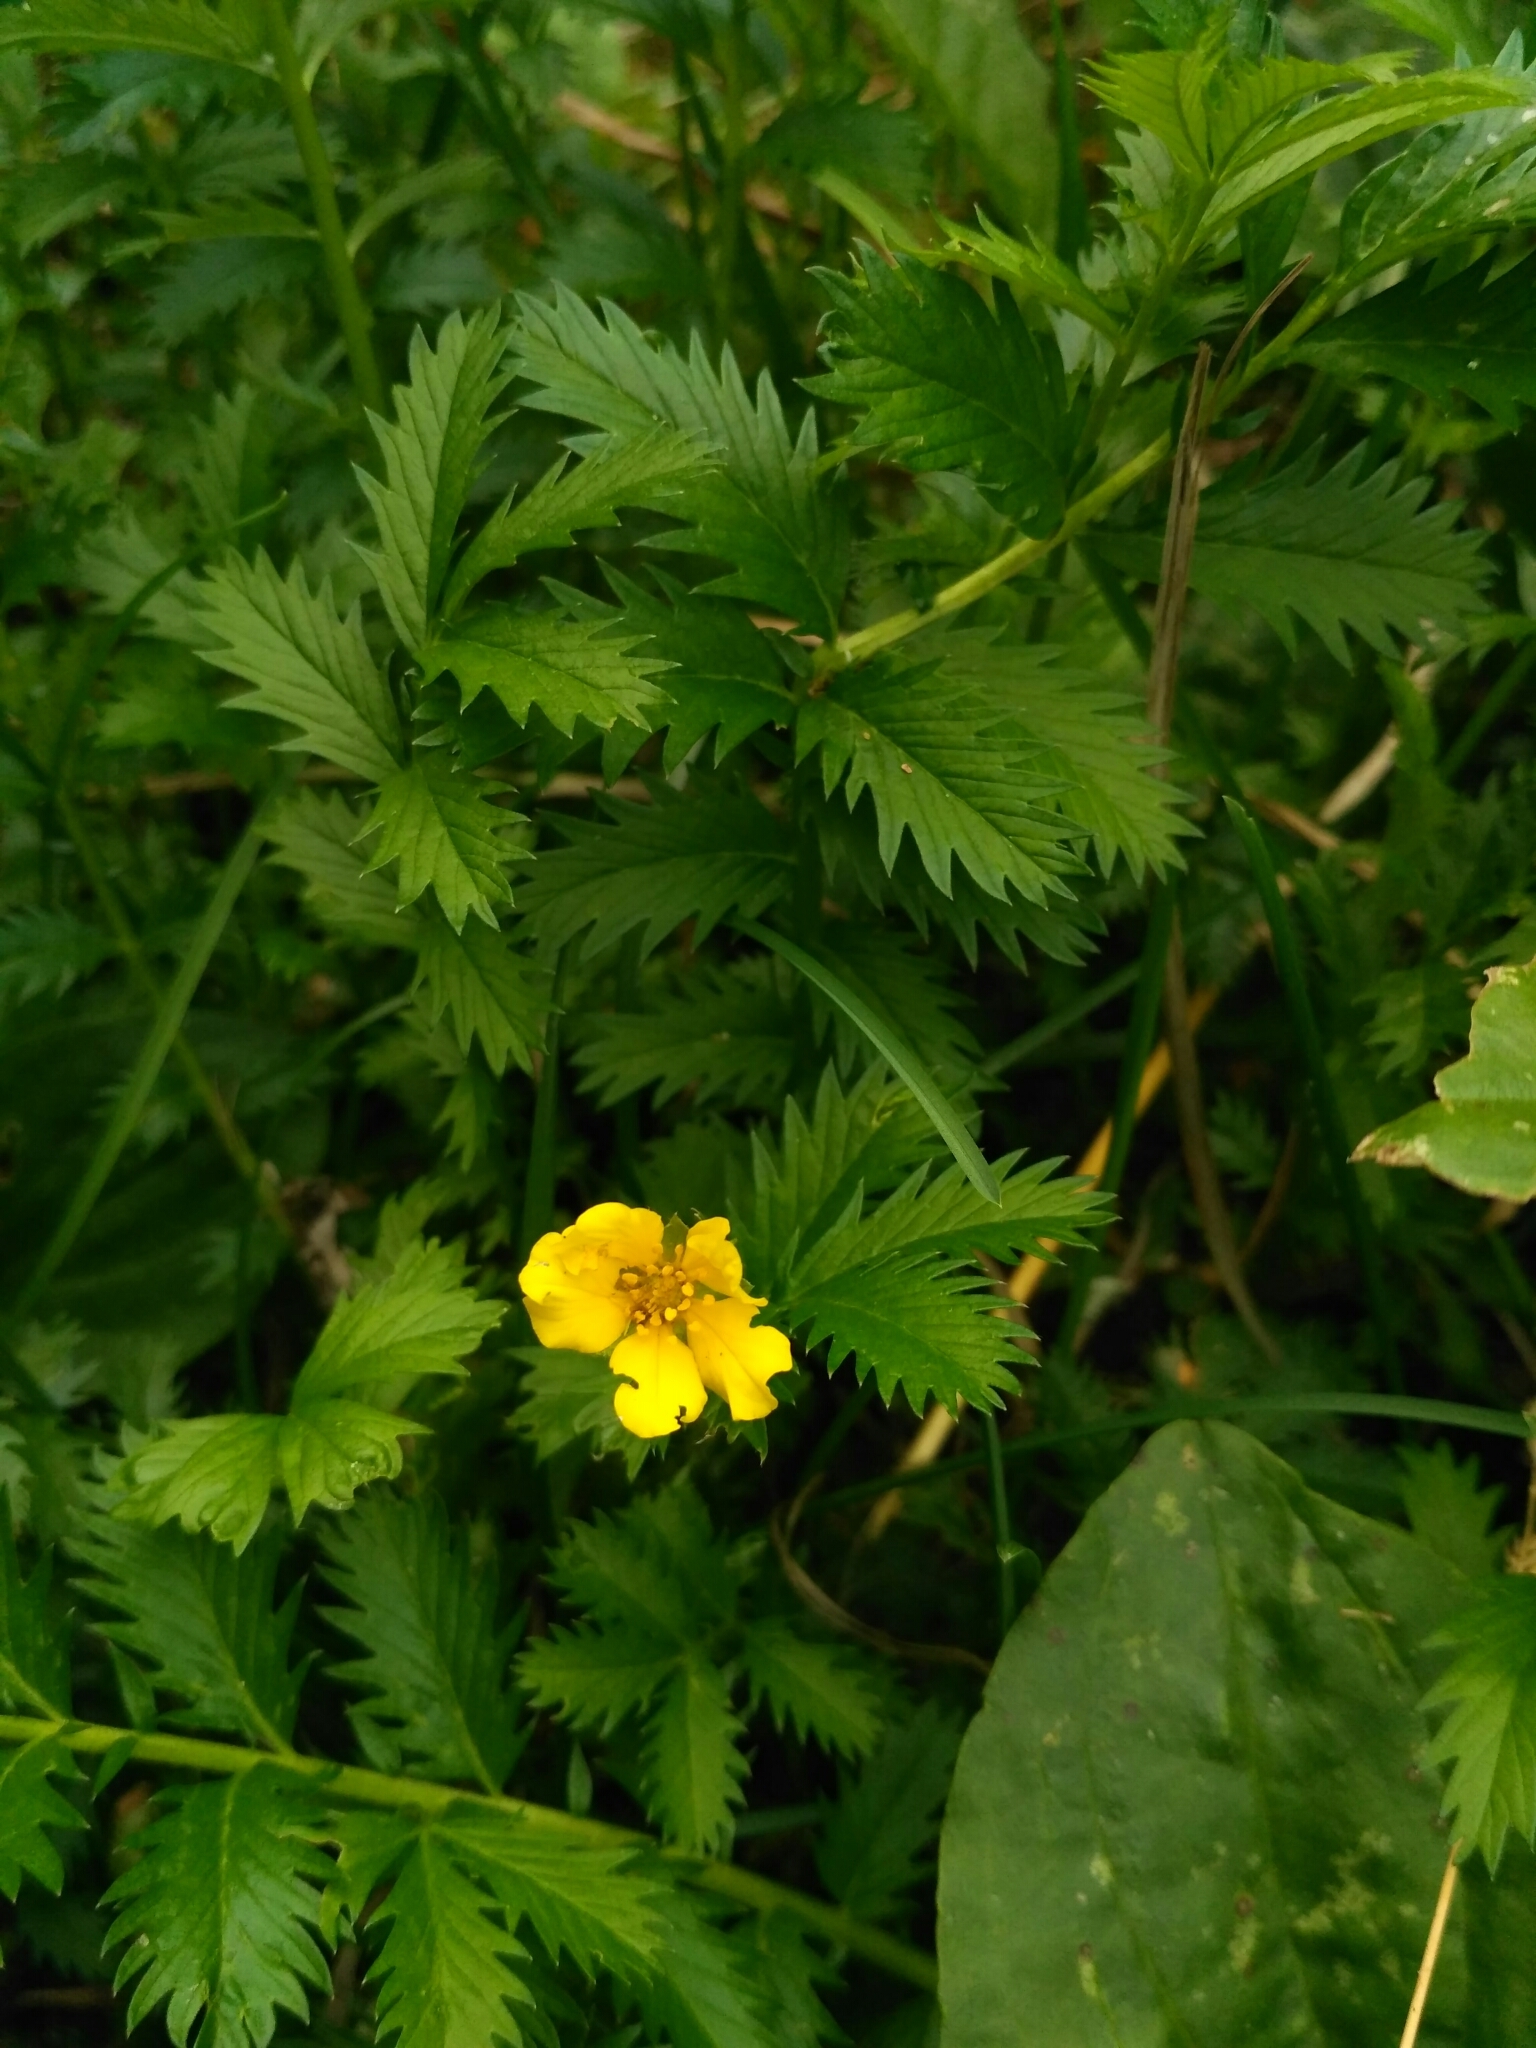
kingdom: Plantae
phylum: Tracheophyta
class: Magnoliopsida
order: Rosales
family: Rosaceae
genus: Argentina
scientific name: Argentina anserina
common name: Common silverweed
